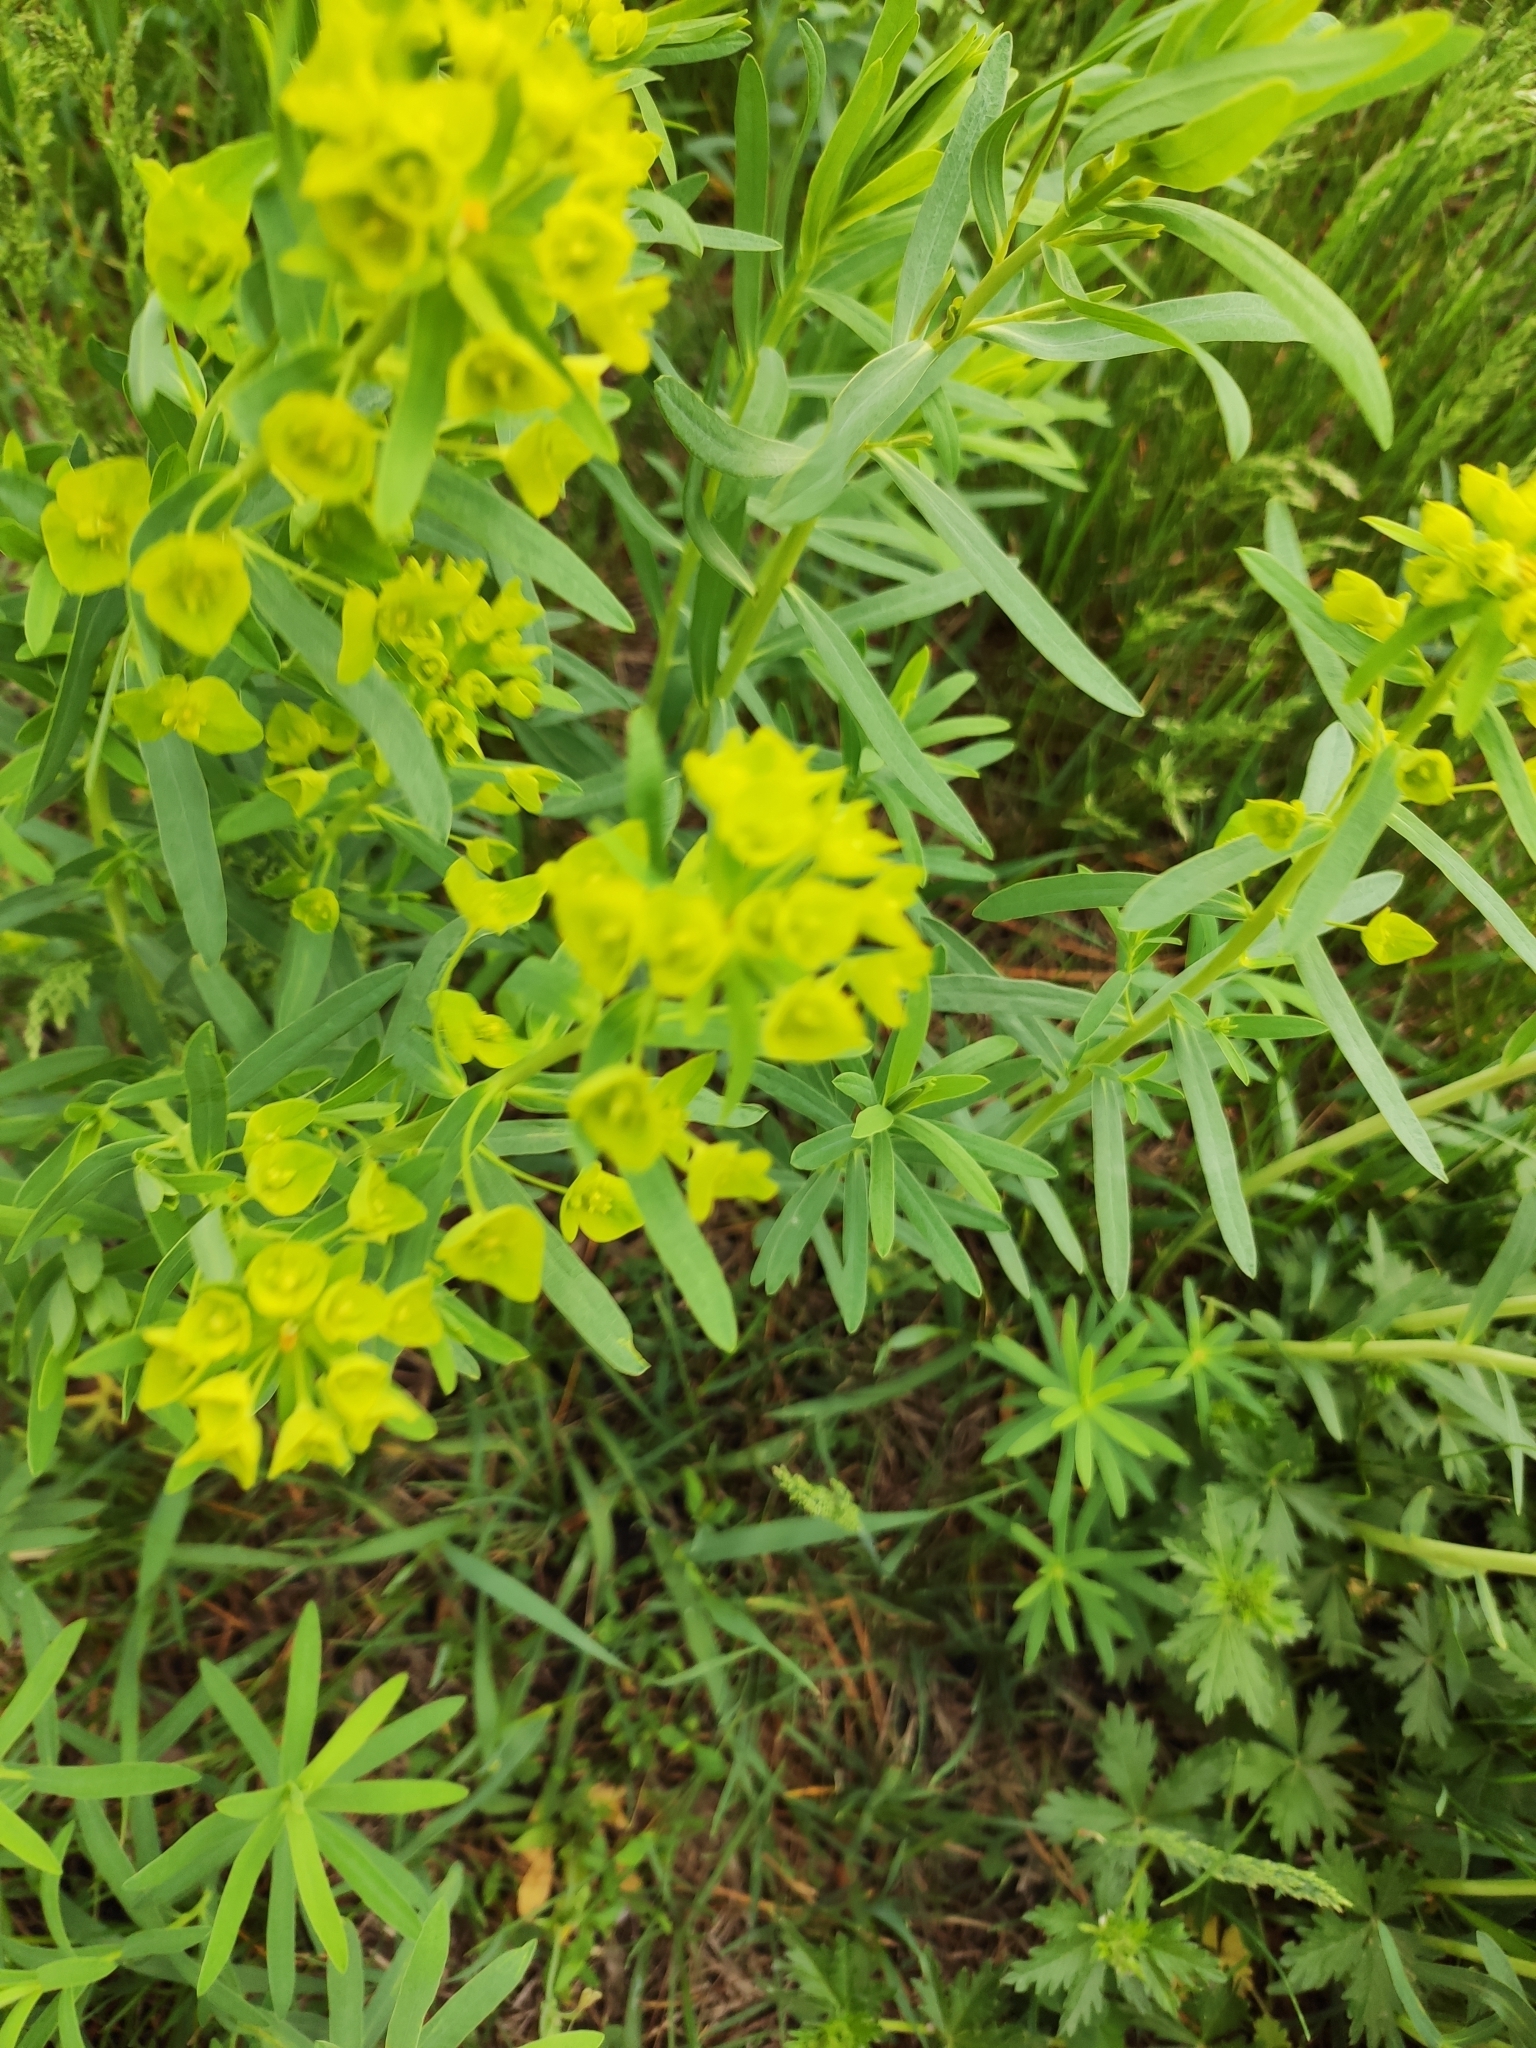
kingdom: Plantae
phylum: Tracheophyta
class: Magnoliopsida
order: Malpighiales
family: Euphorbiaceae
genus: Euphorbia
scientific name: Euphorbia virgata
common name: Leafy spurge
